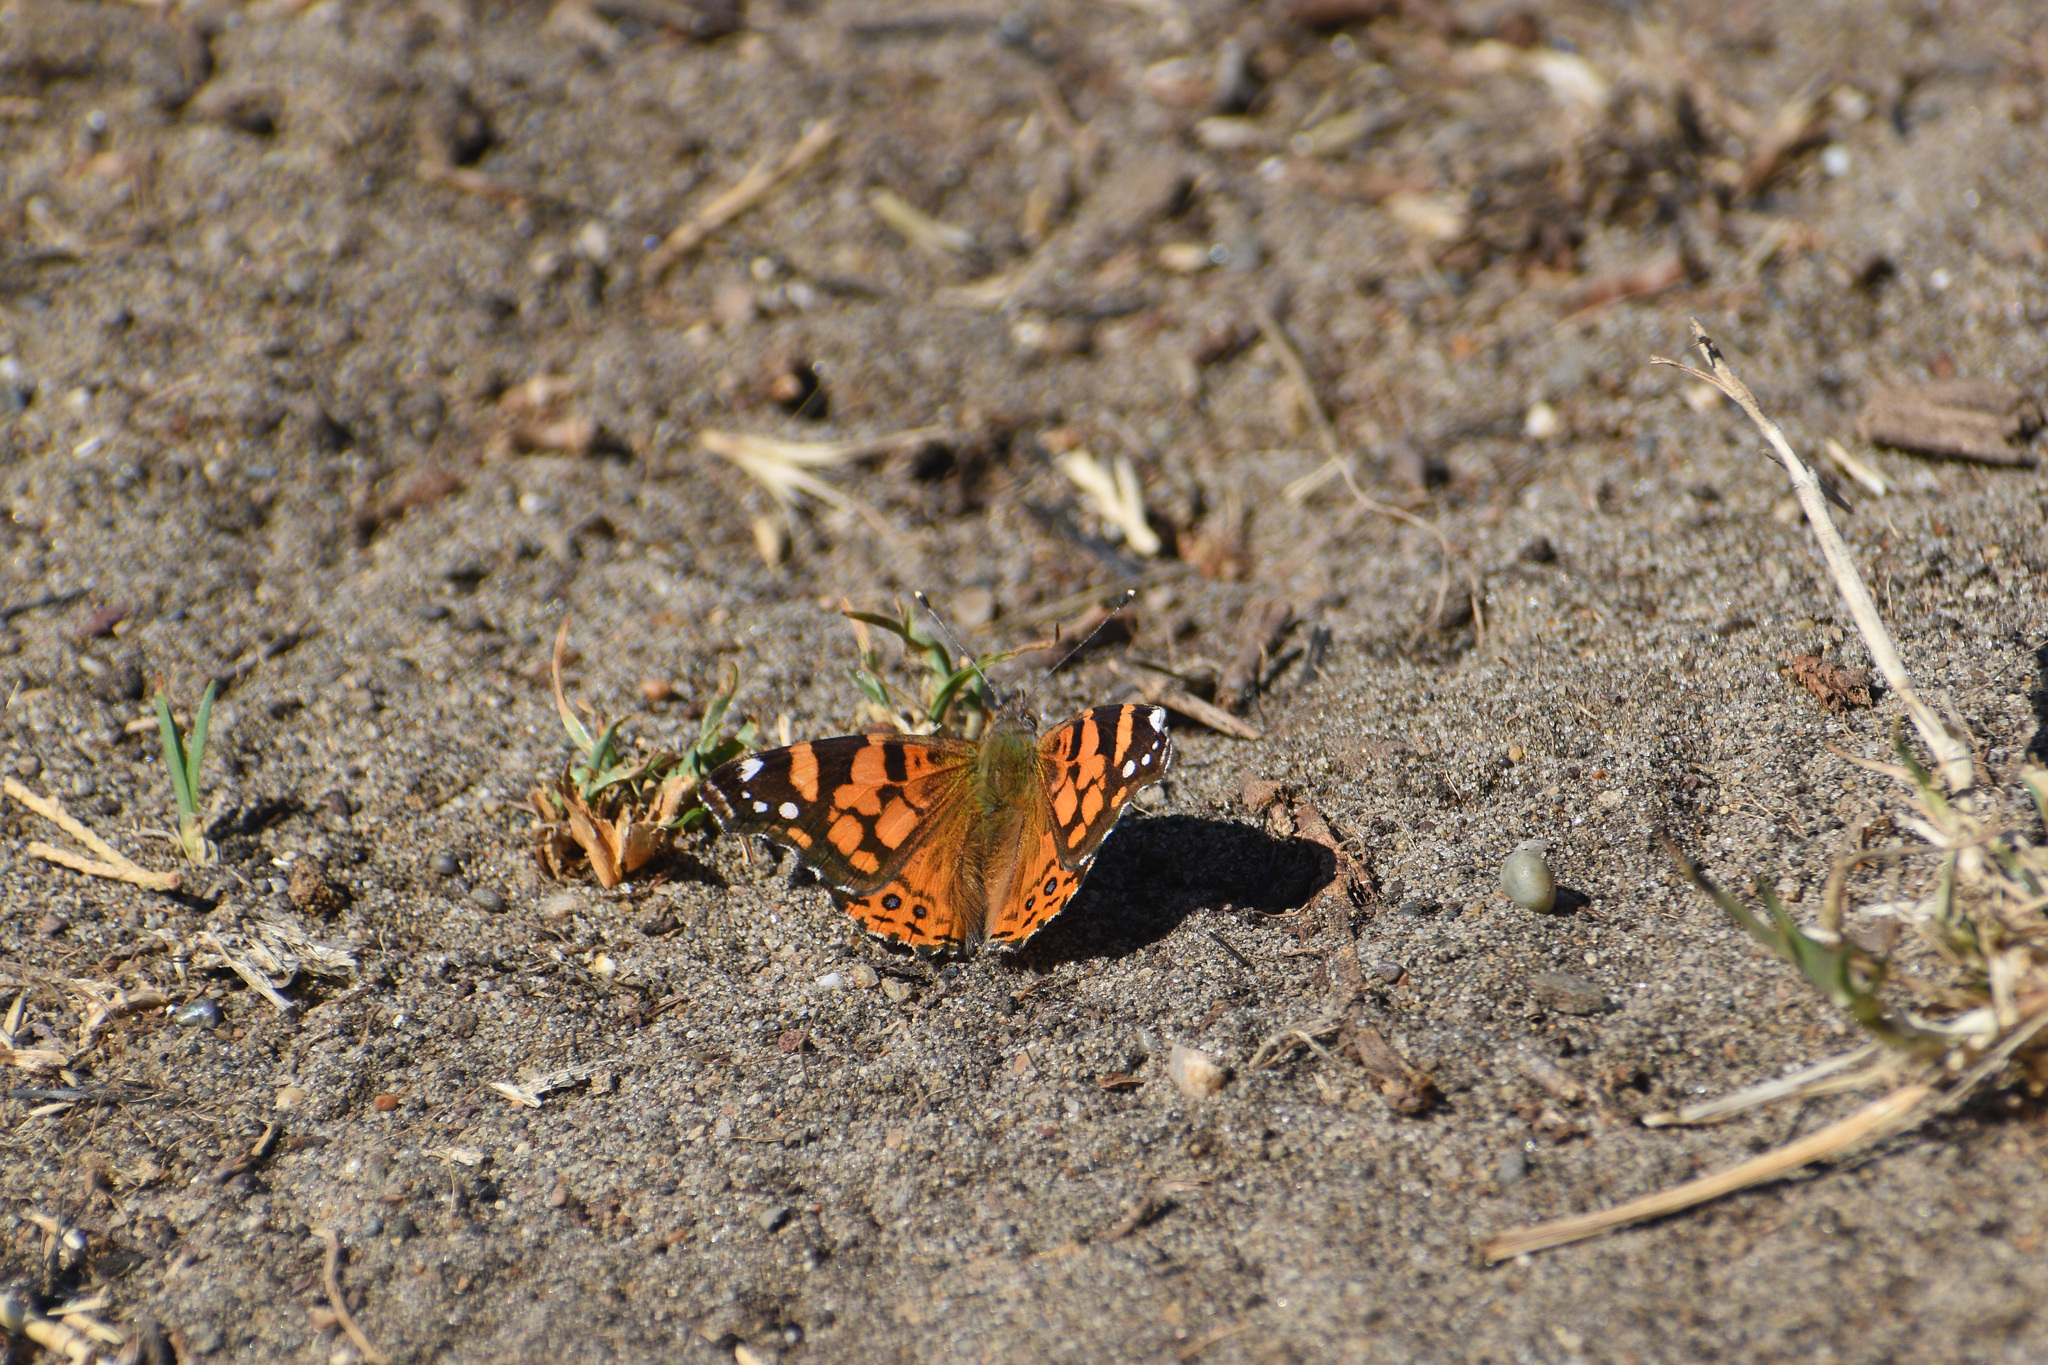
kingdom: Animalia
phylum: Arthropoda
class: Insecta
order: Lepidoptera
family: Nymphalidae
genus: Vanessa
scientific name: Vanessa annabella
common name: West coast lady
